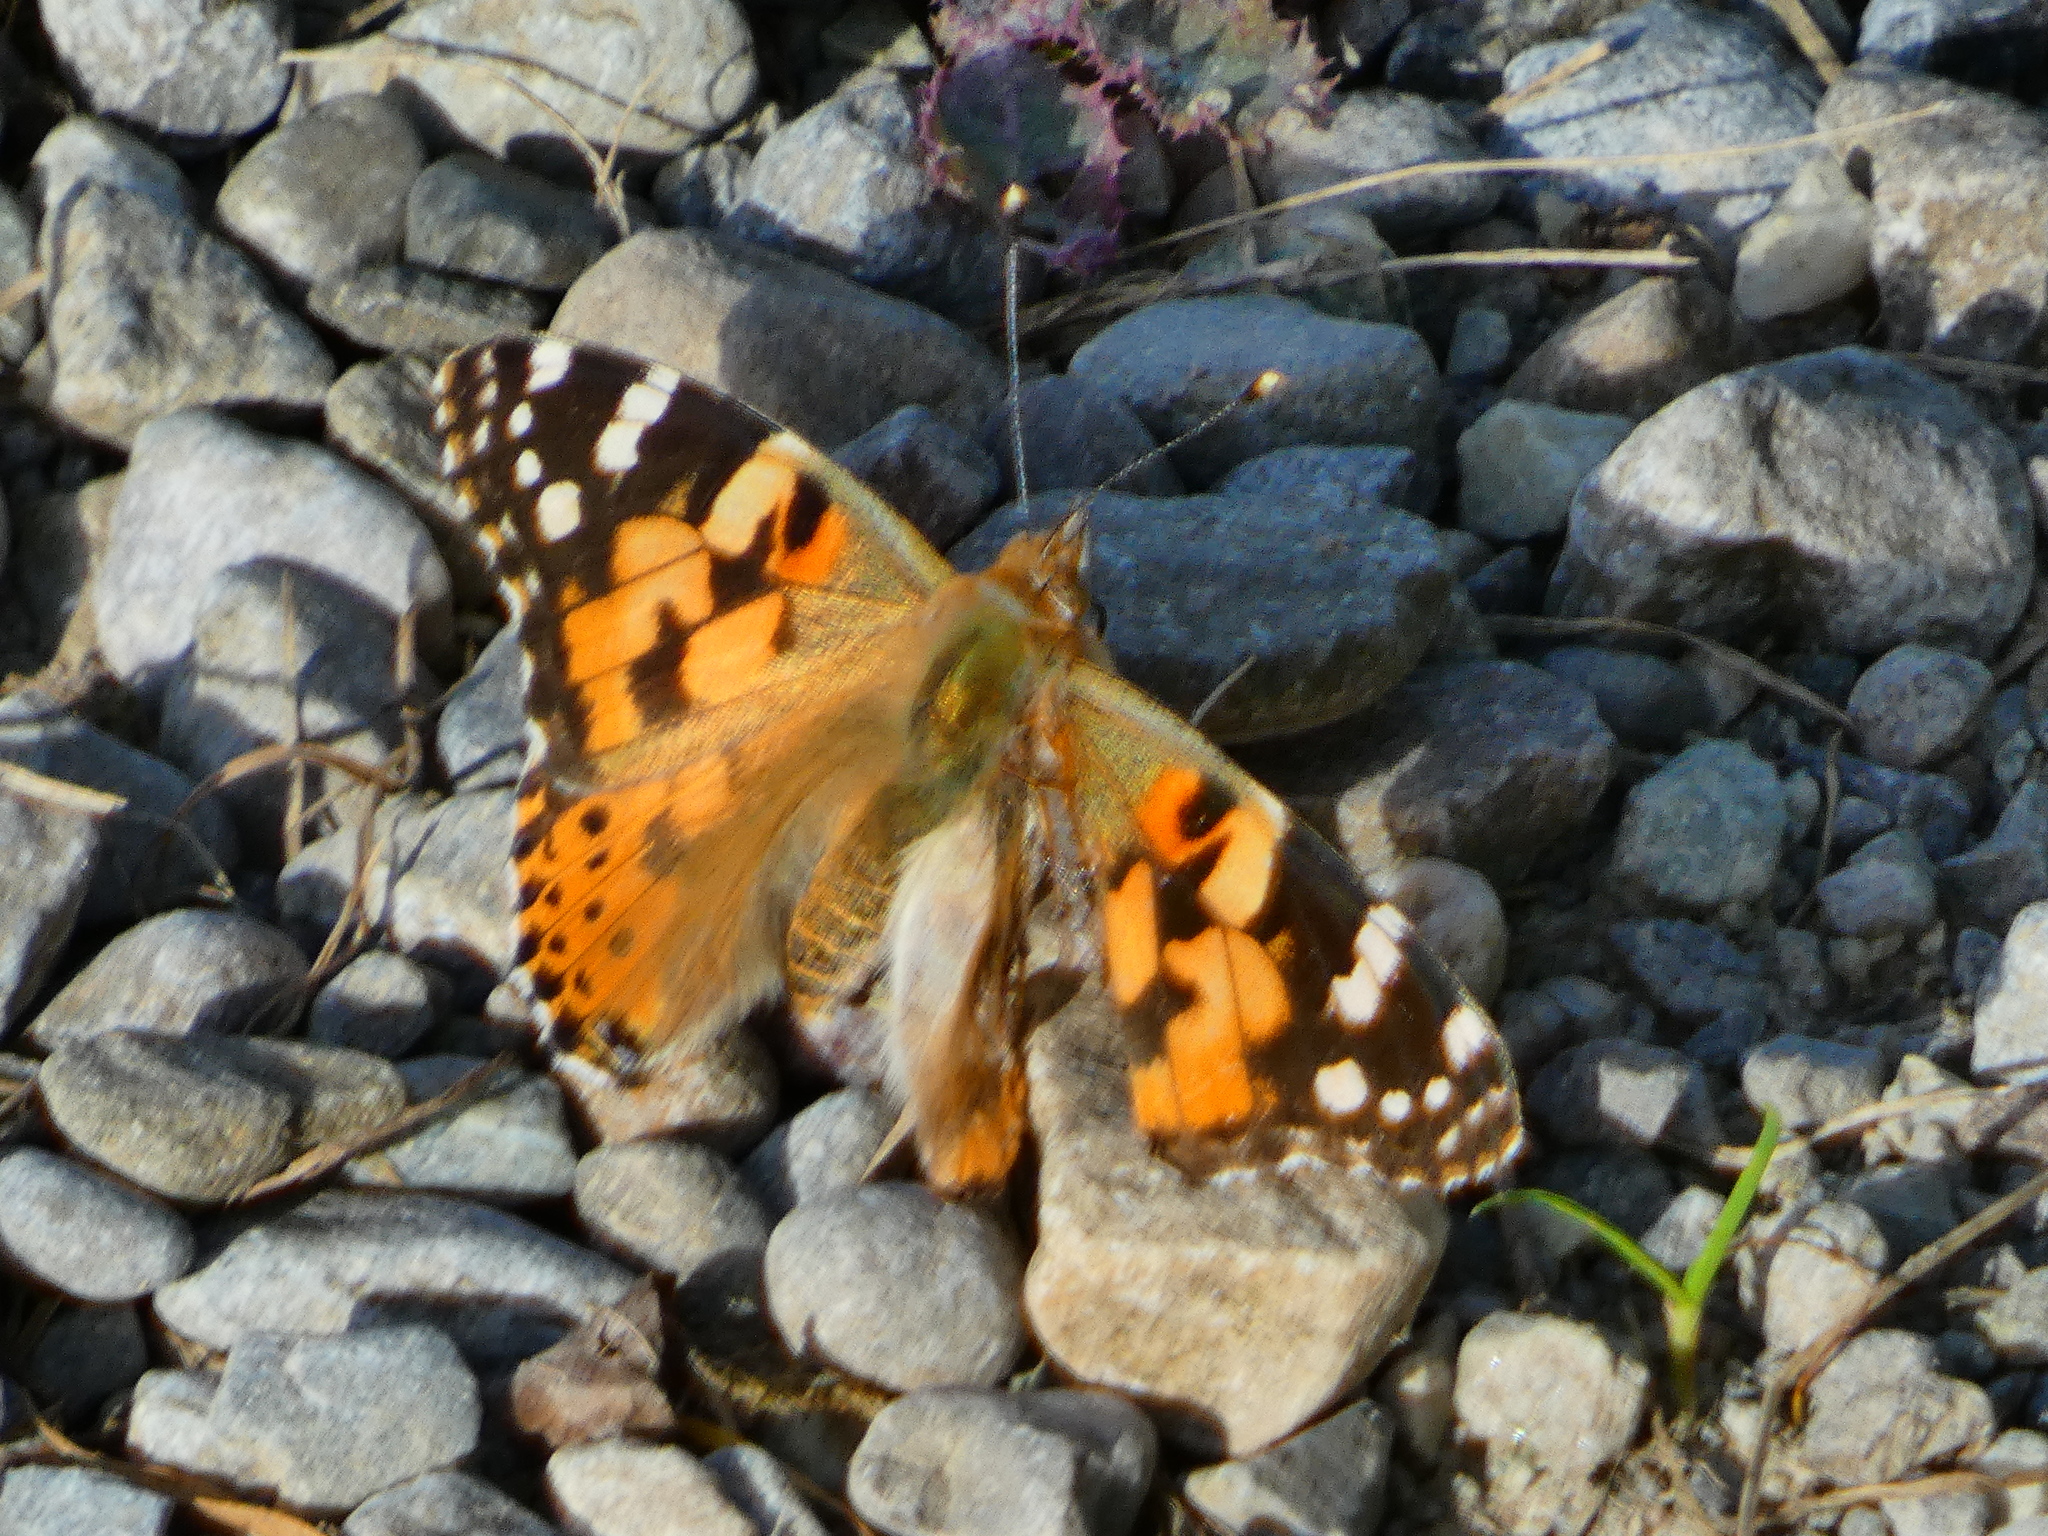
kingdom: Animalia
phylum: Arthropoda
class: Insecta
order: Lepidoptera
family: Nymphalidae
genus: Vanessa
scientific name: Vanessa cardui
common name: Painted lady
